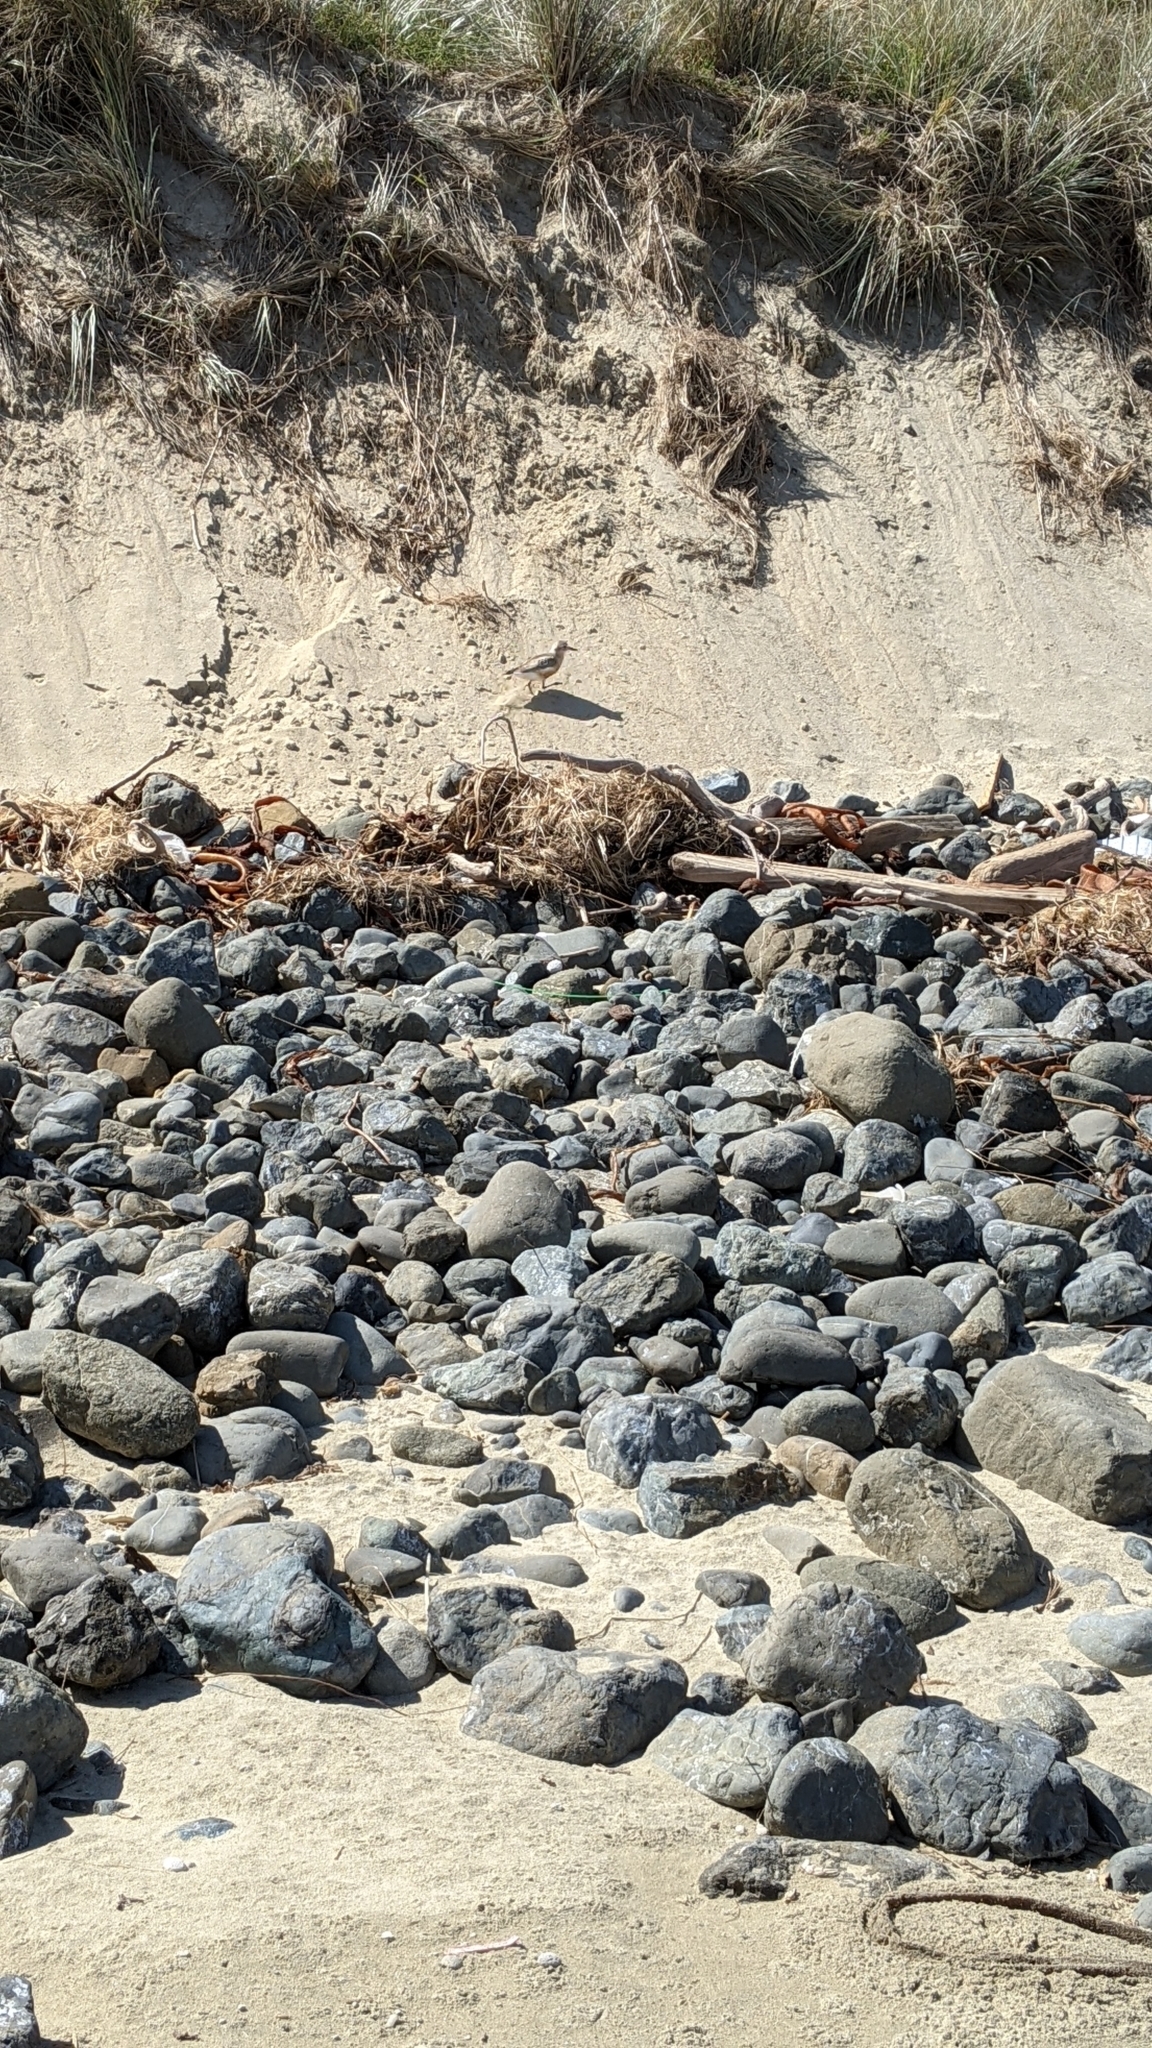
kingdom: Animalia
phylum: Chordata
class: Aves
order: Charadriiformes
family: Charadriidae
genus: Anarhynchus
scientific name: Anarhynchus
